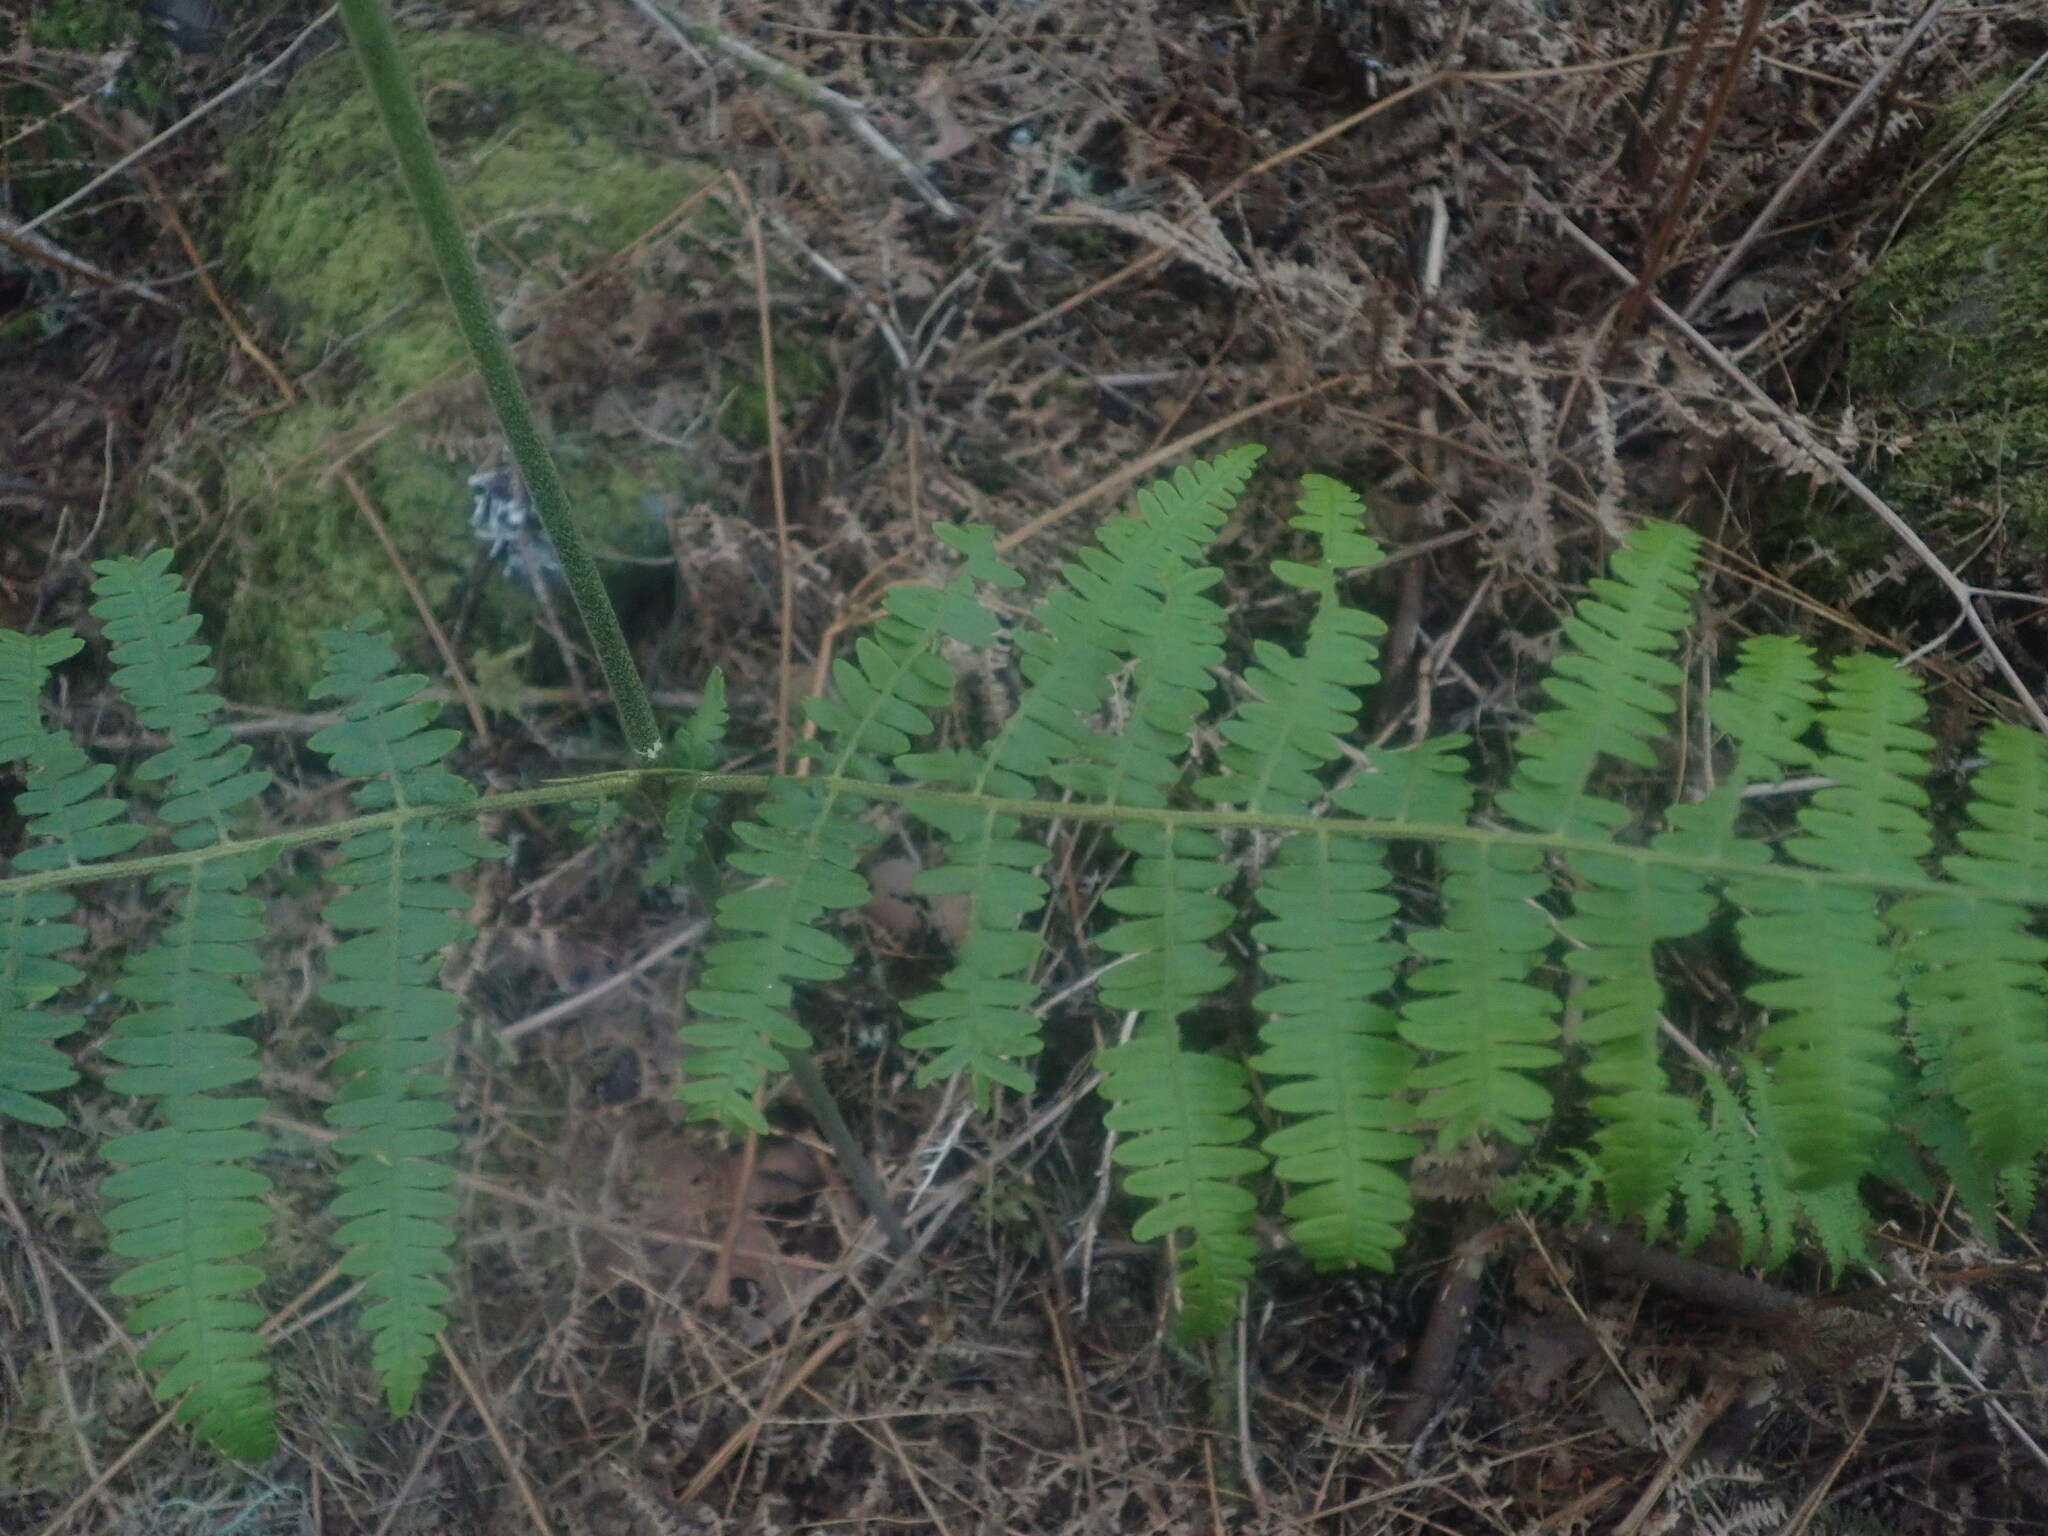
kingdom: Plantae
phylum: Tracheophyta
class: Polypodiopsida
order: Polypodiales
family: Dennstaedtiaceae
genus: Pteridium
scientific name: Pteridium aquilinum
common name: Bracken
